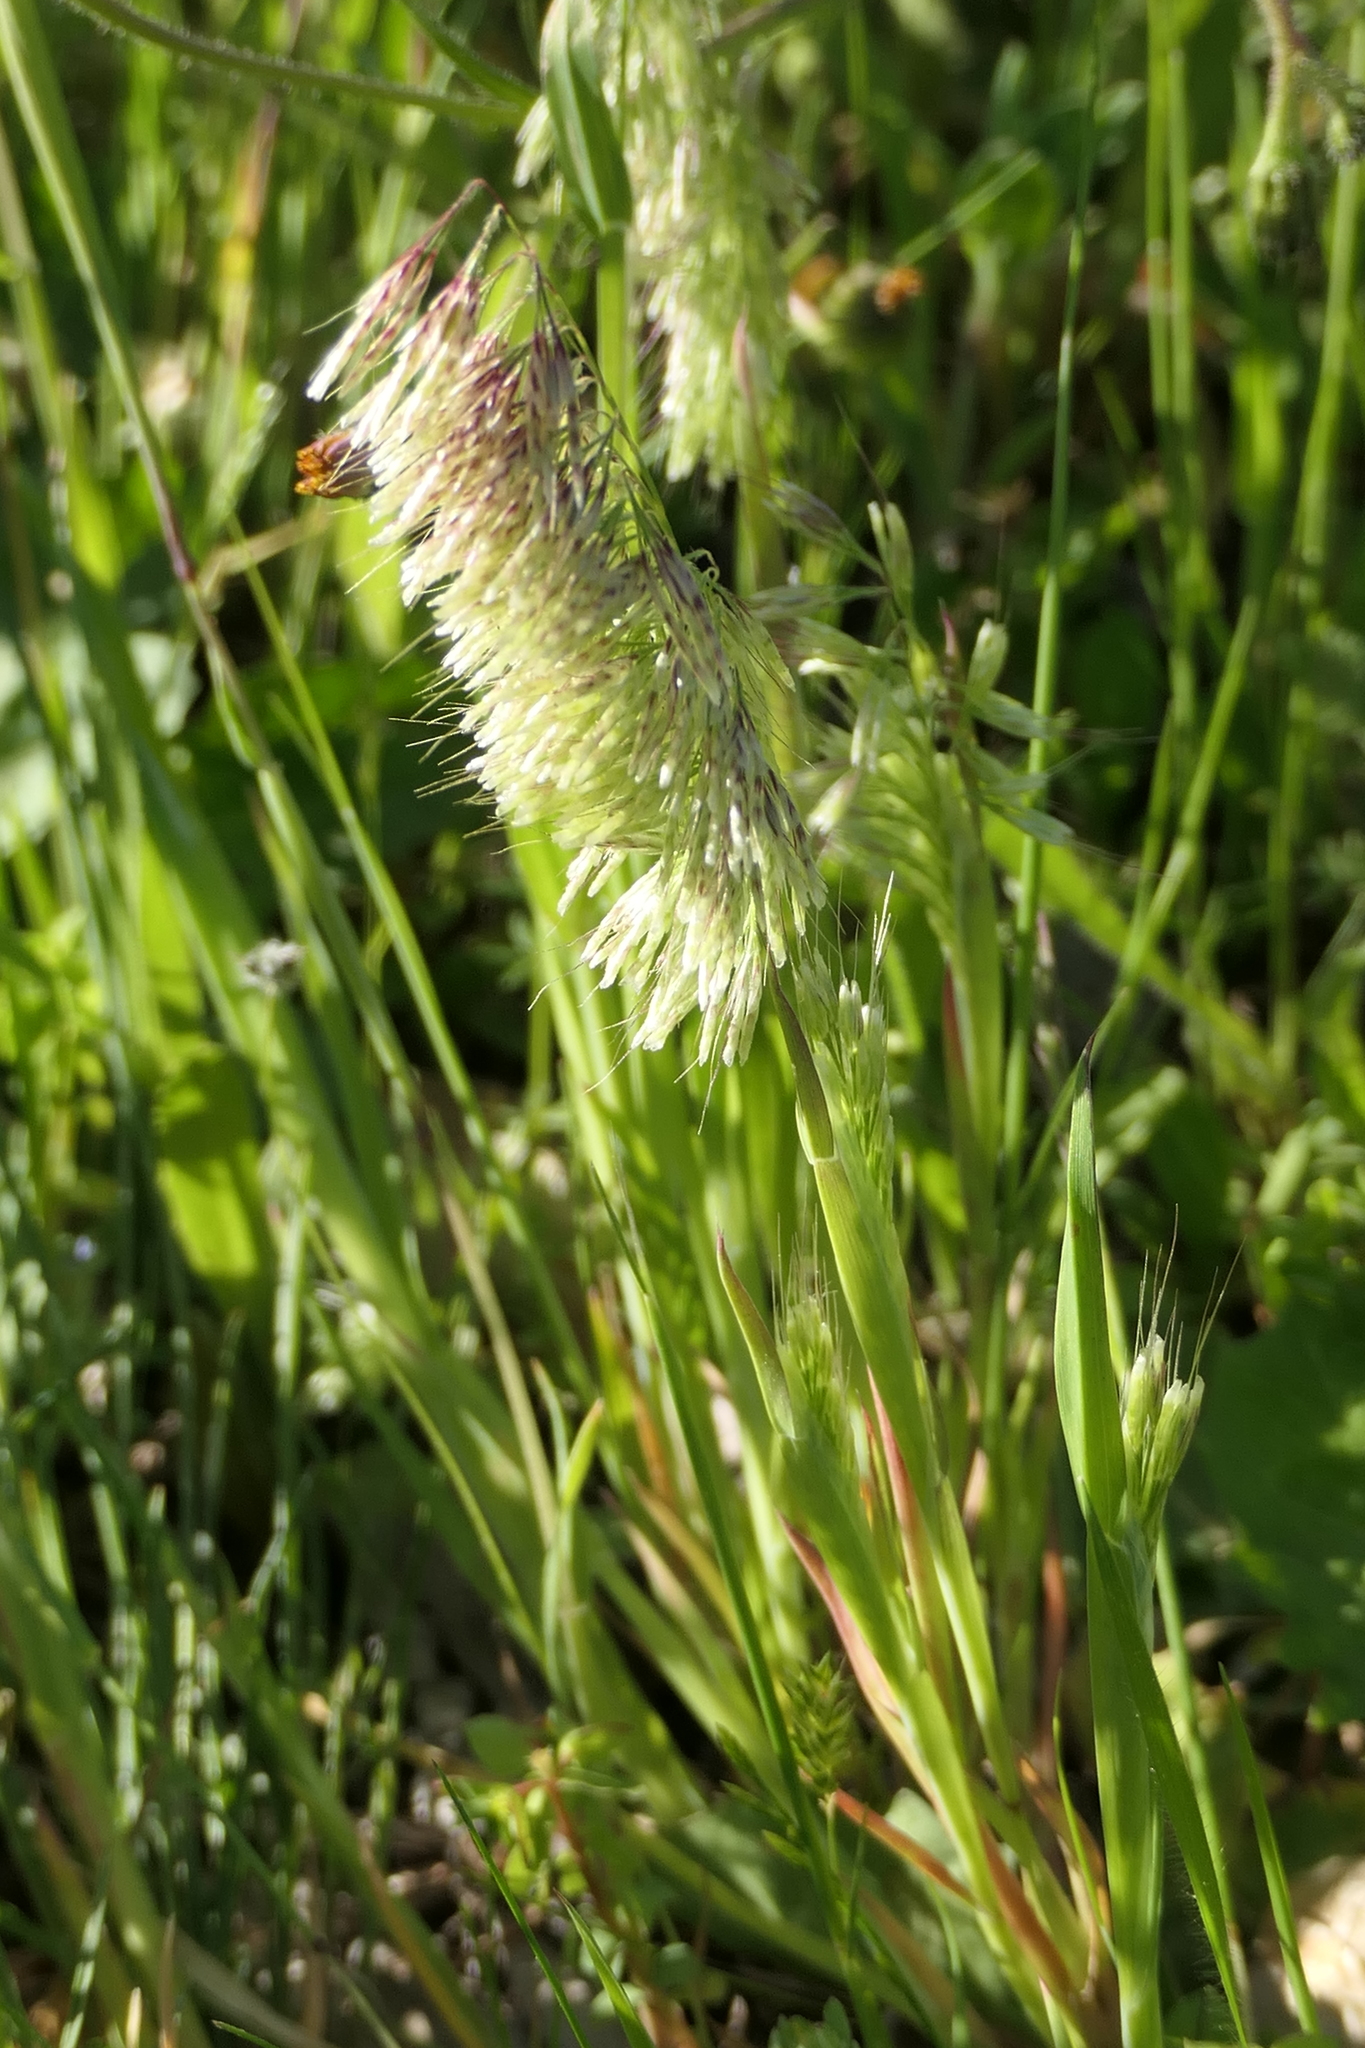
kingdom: Plantae
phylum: Tracheophyta
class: Liliopsida
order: Poales
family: Poaceae
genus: Lamarckia
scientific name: Lamarckia aurea
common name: Golden dog's-tail
